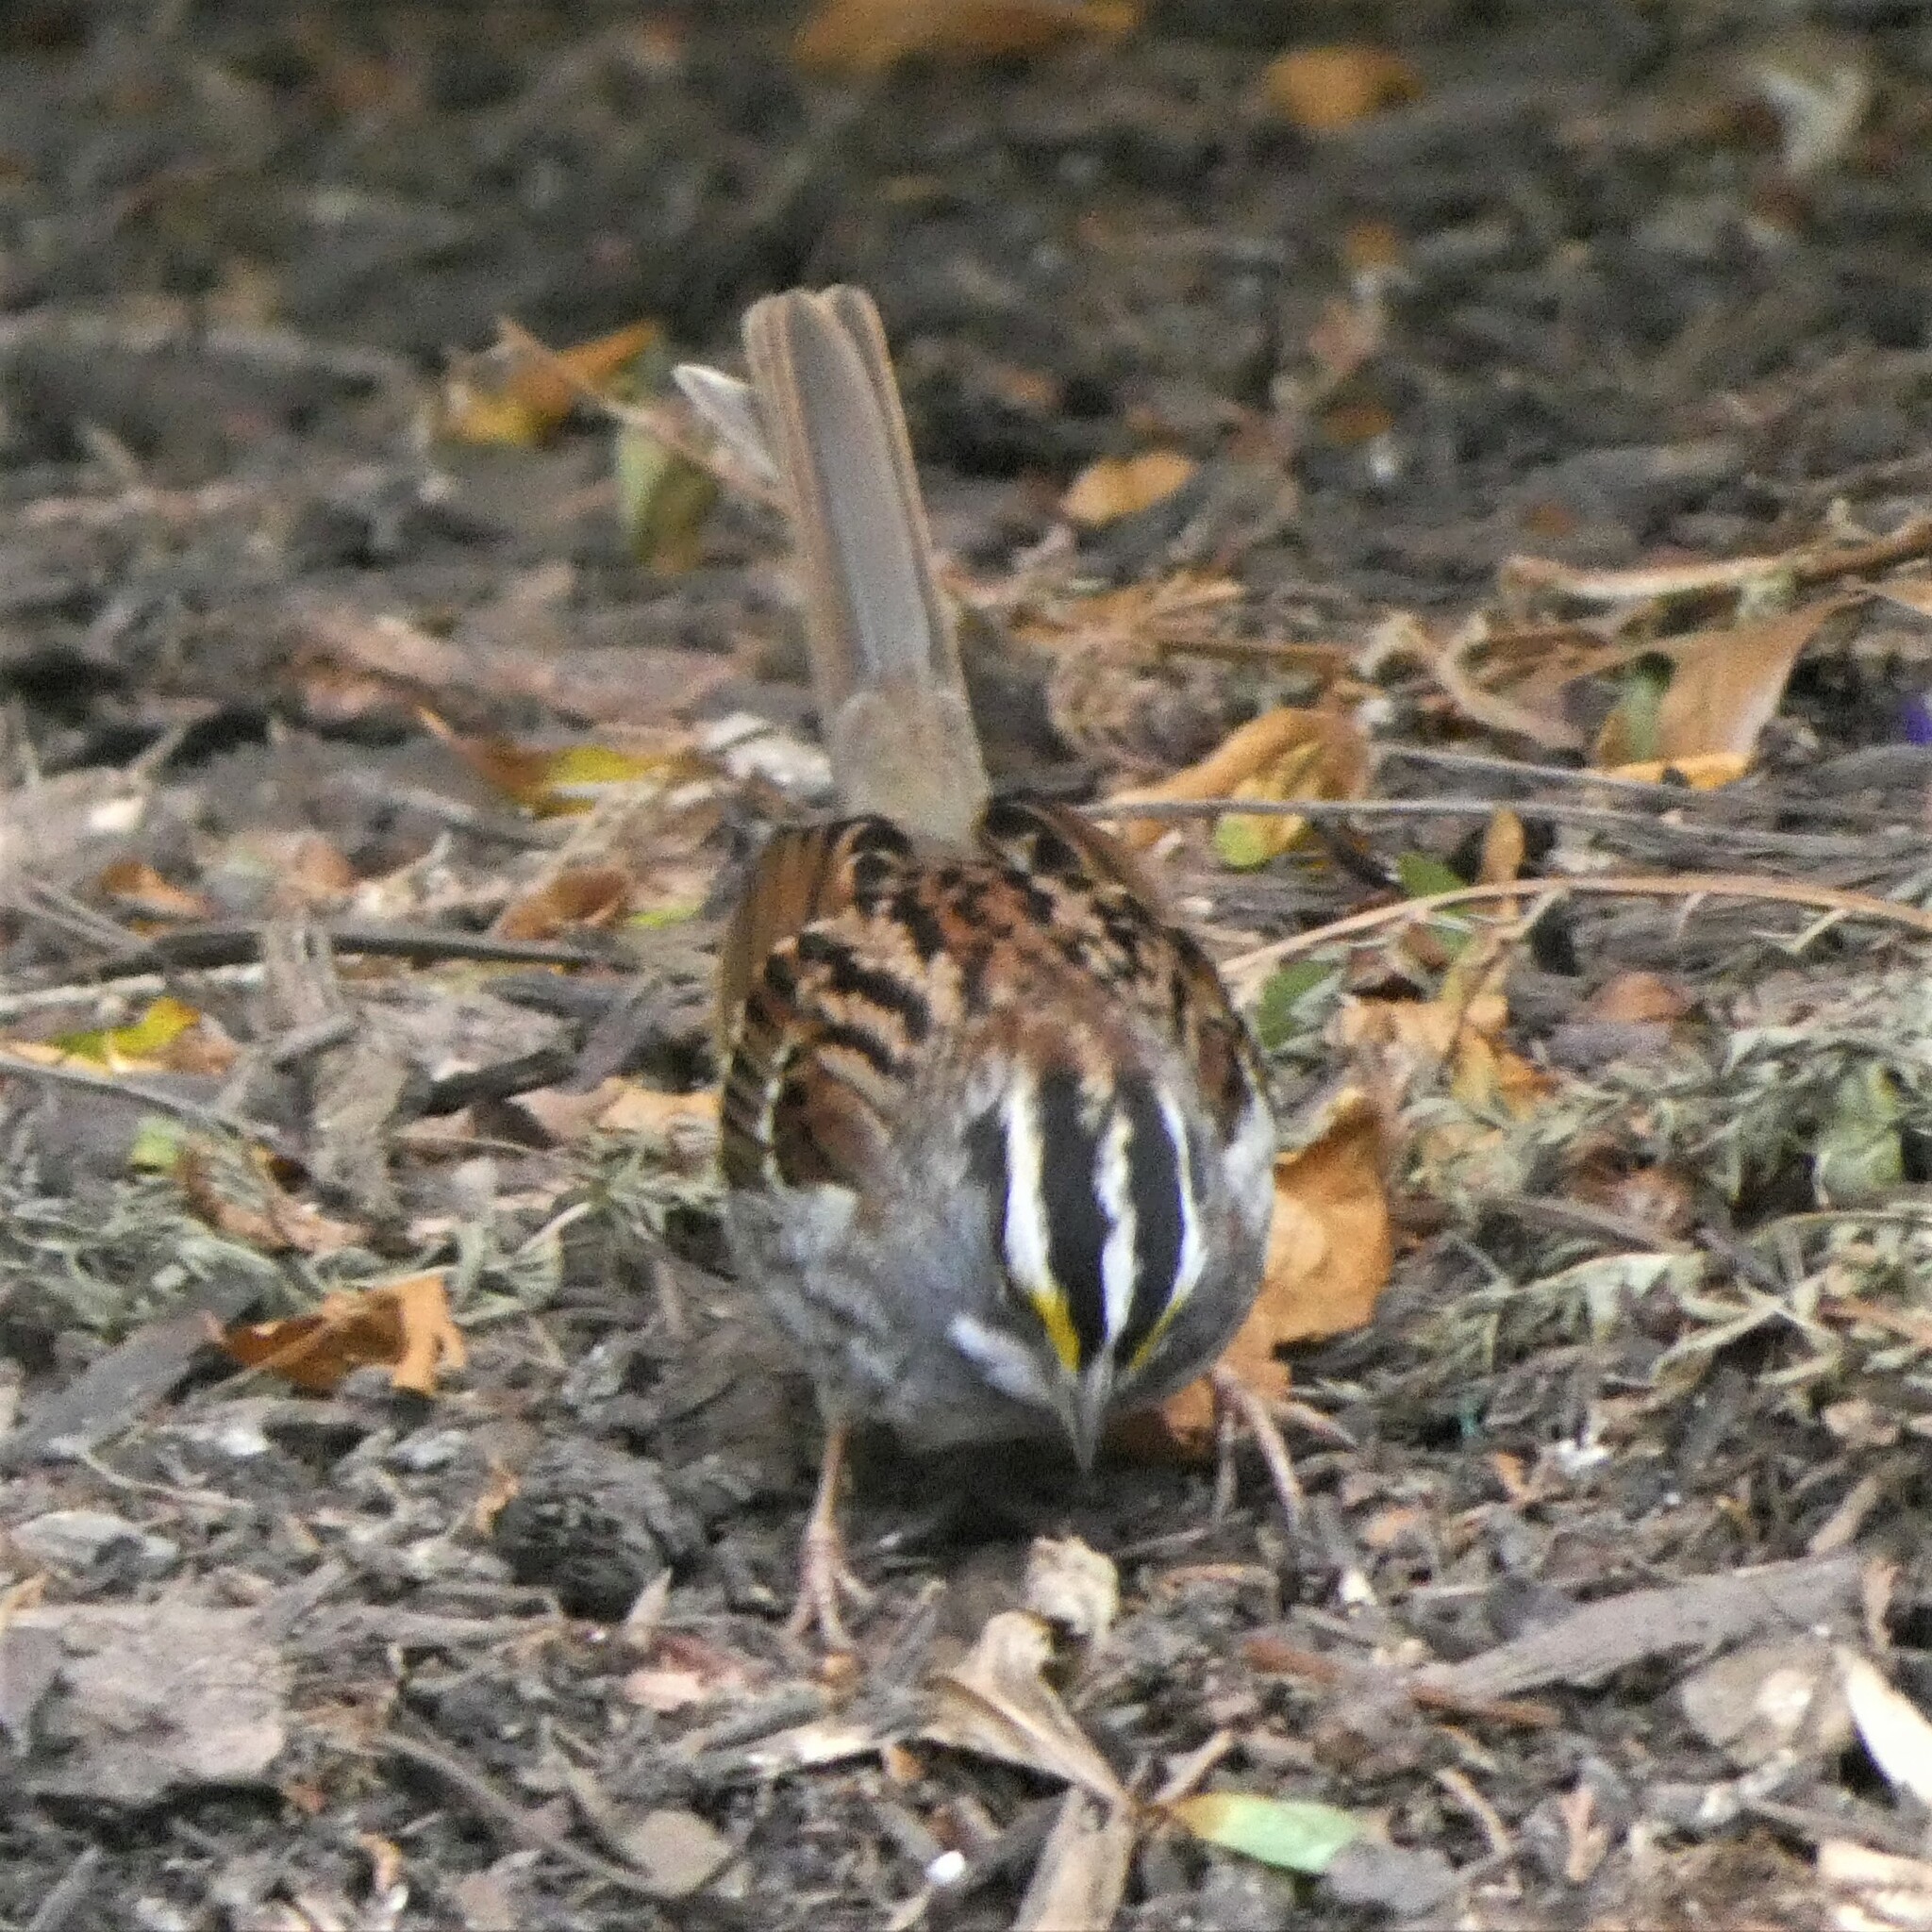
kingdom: Animalia
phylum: Chordata
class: Aves
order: Passeriformes
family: Passerellidae
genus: Zonotrichia
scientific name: Zonotrichia albicollis
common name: White-throated sparrow
